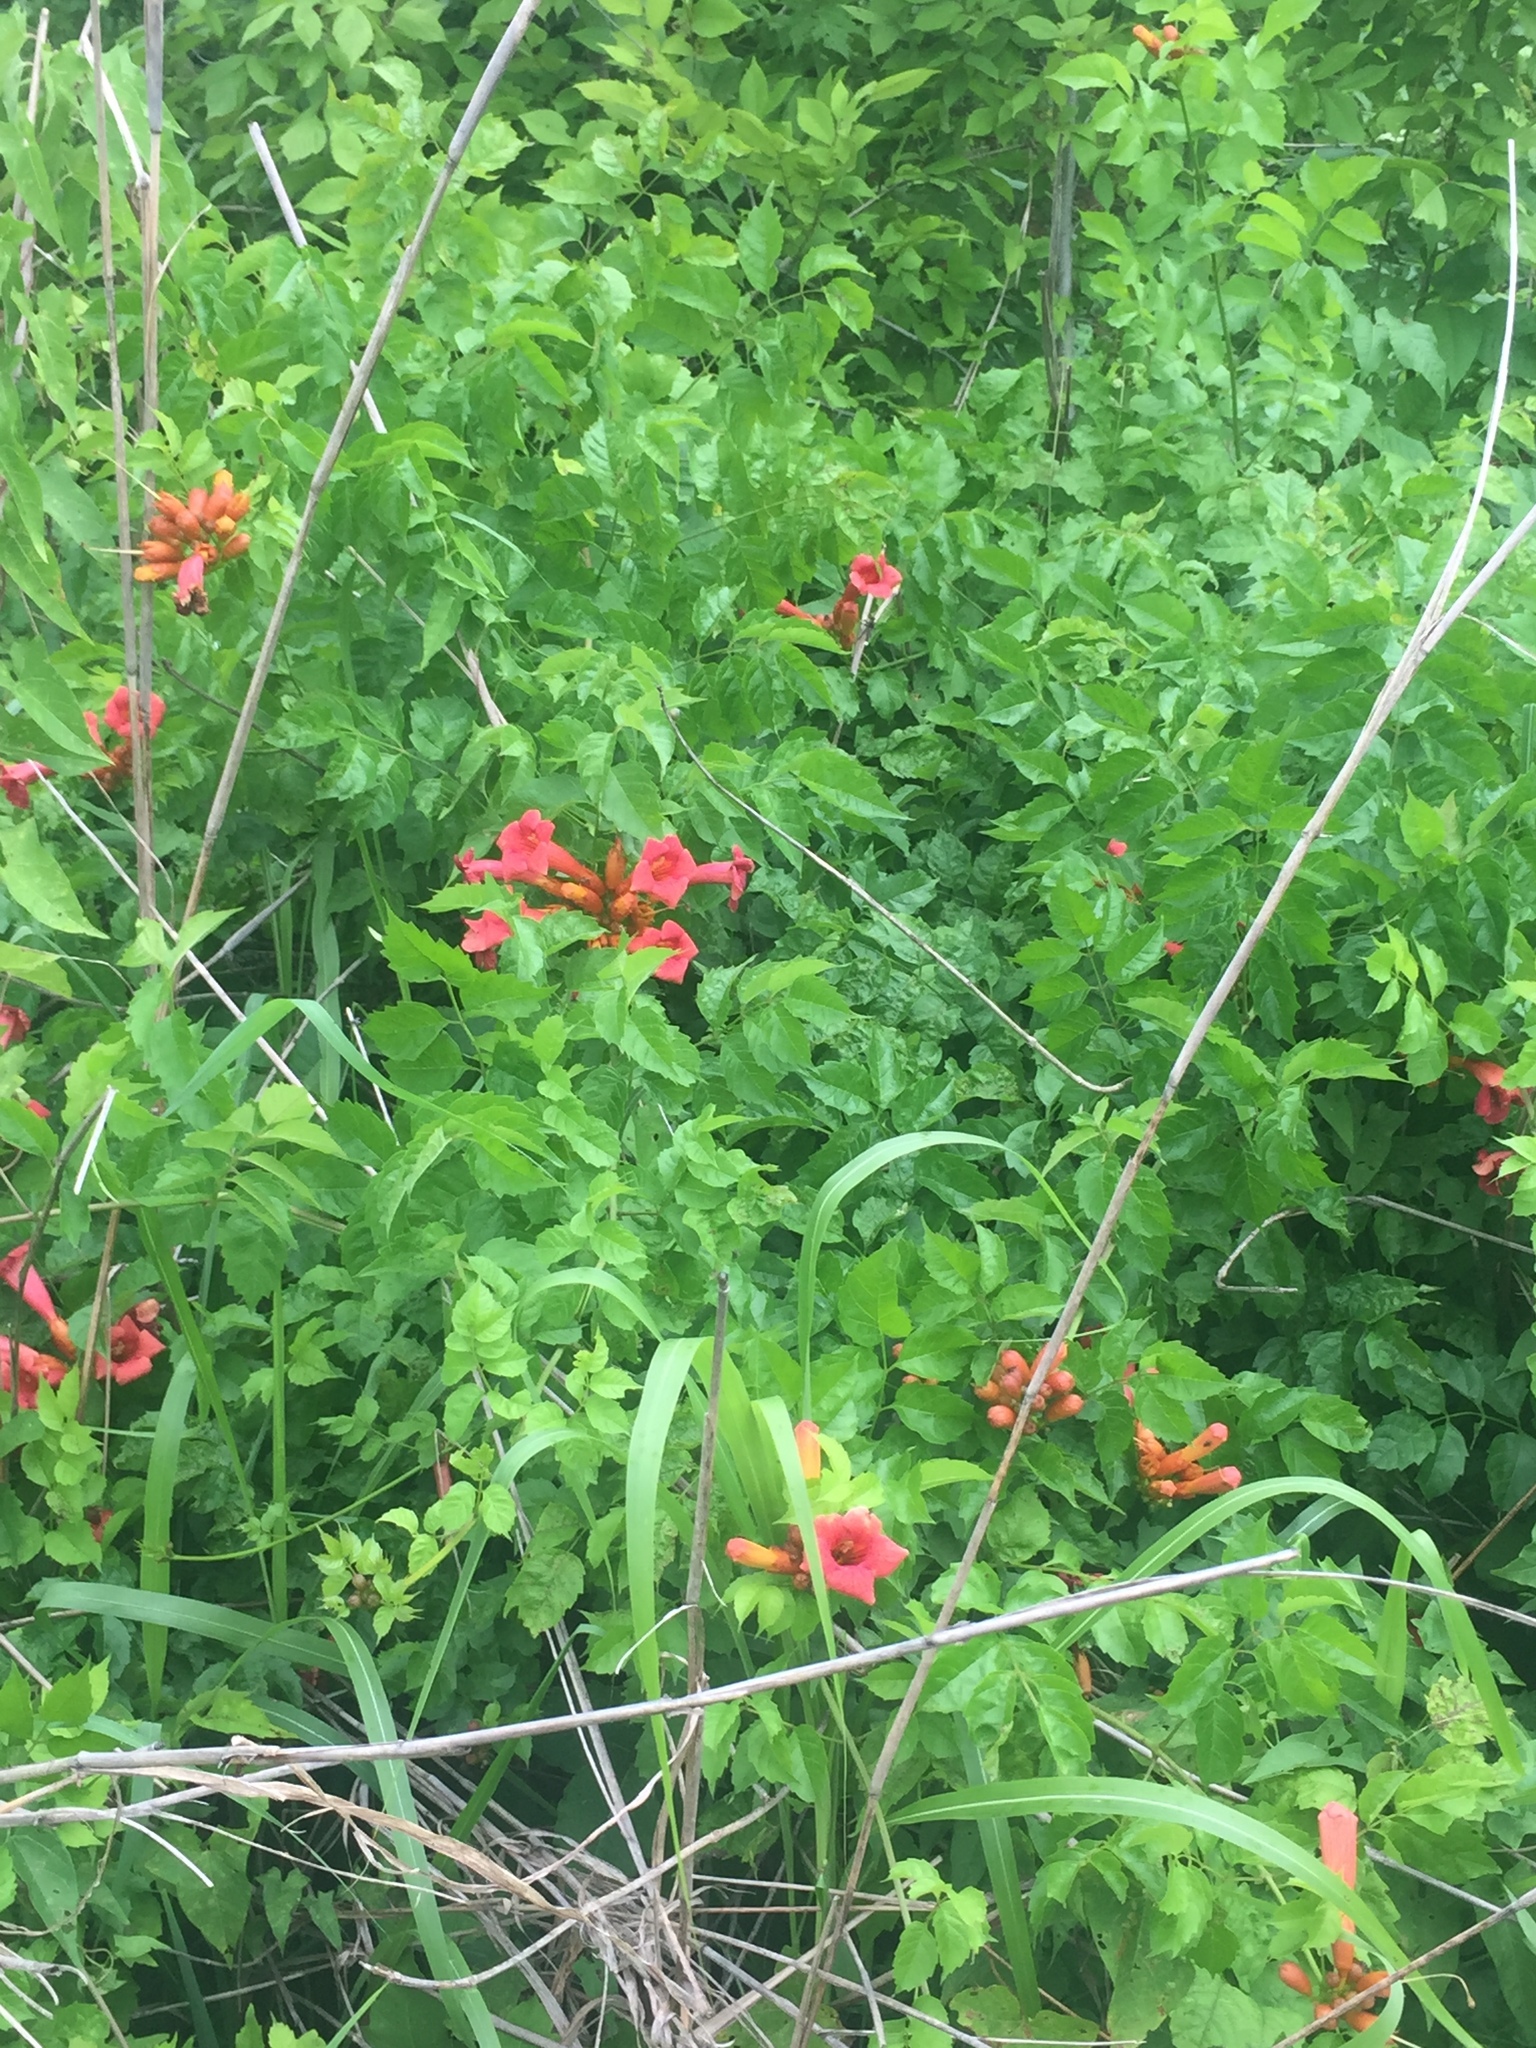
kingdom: Plantae
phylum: Tracheophyta
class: Magnoliopsida
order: Lamiales
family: Bignoniaceae
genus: Campsis
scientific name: Campsis radicans
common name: Trumpet-creeper
